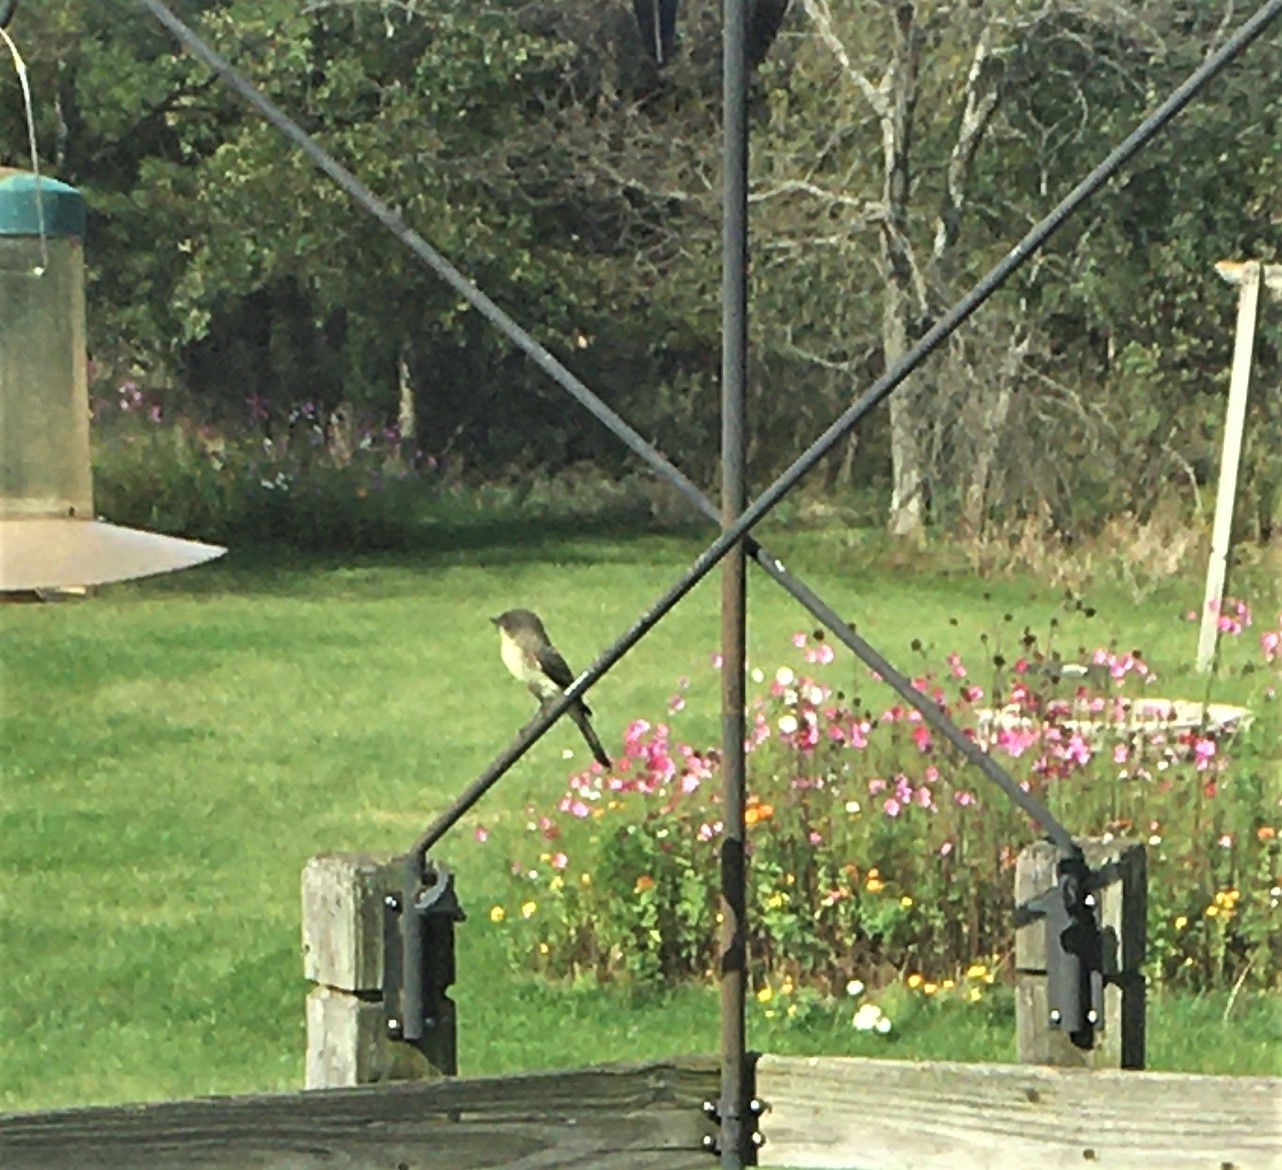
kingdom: Animalia
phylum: Chordata
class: Aves
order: Passeriformes
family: Tyrannidae
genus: Sayornis
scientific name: Sayornis phoebe
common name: Eastern phoebe
